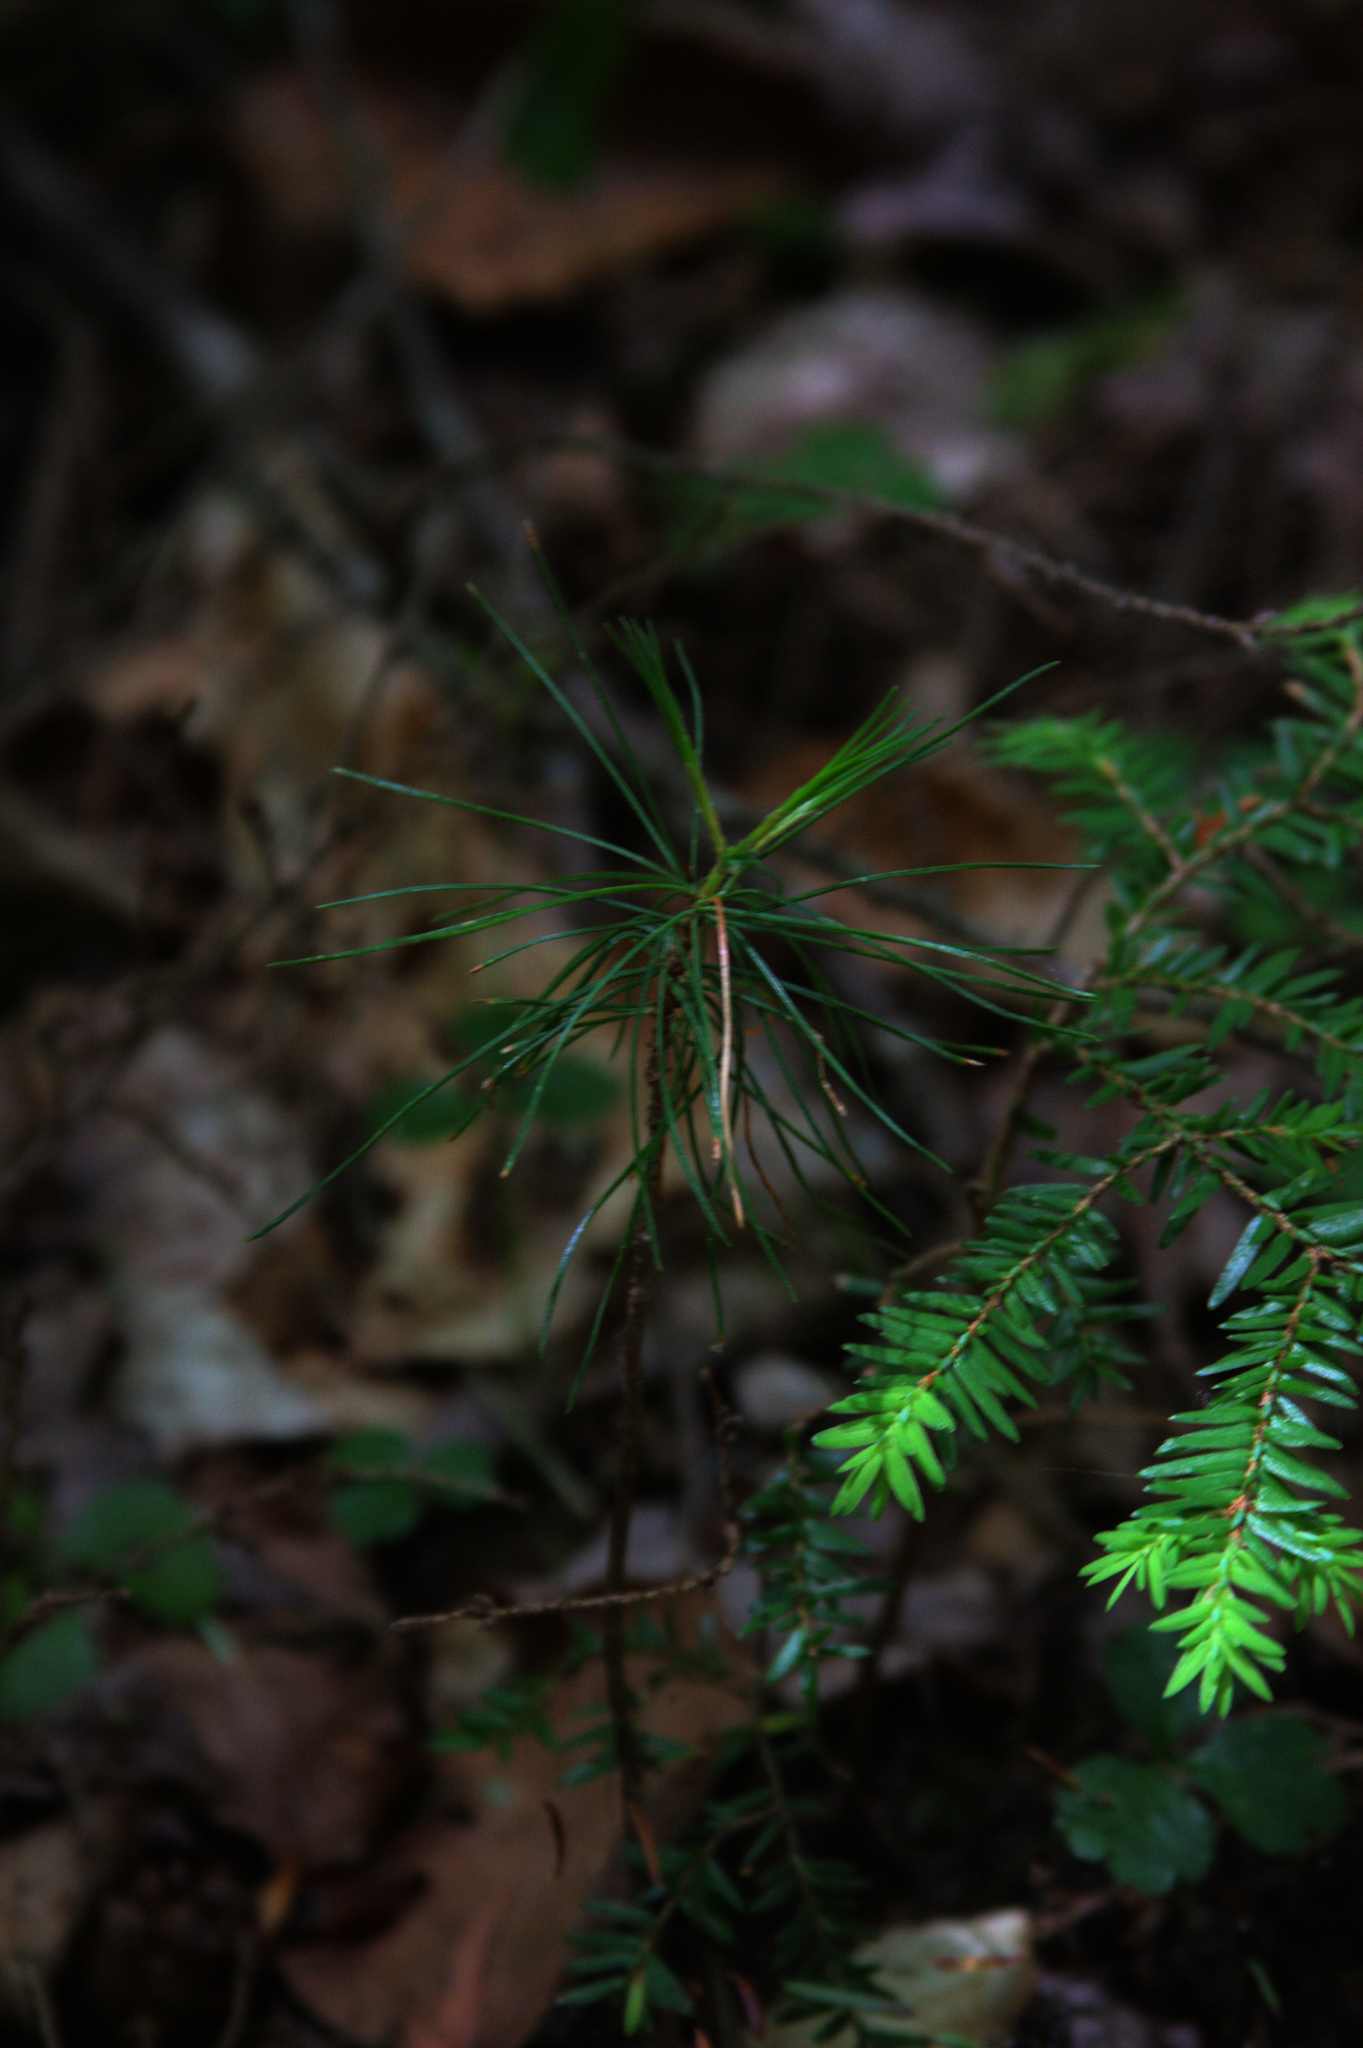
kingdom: Plantae
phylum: Tracheophyta
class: Pinopsida
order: Pinales
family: Pinaceae
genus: Tsuga
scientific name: Tsuga canadensis
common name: Eastern hemlock
